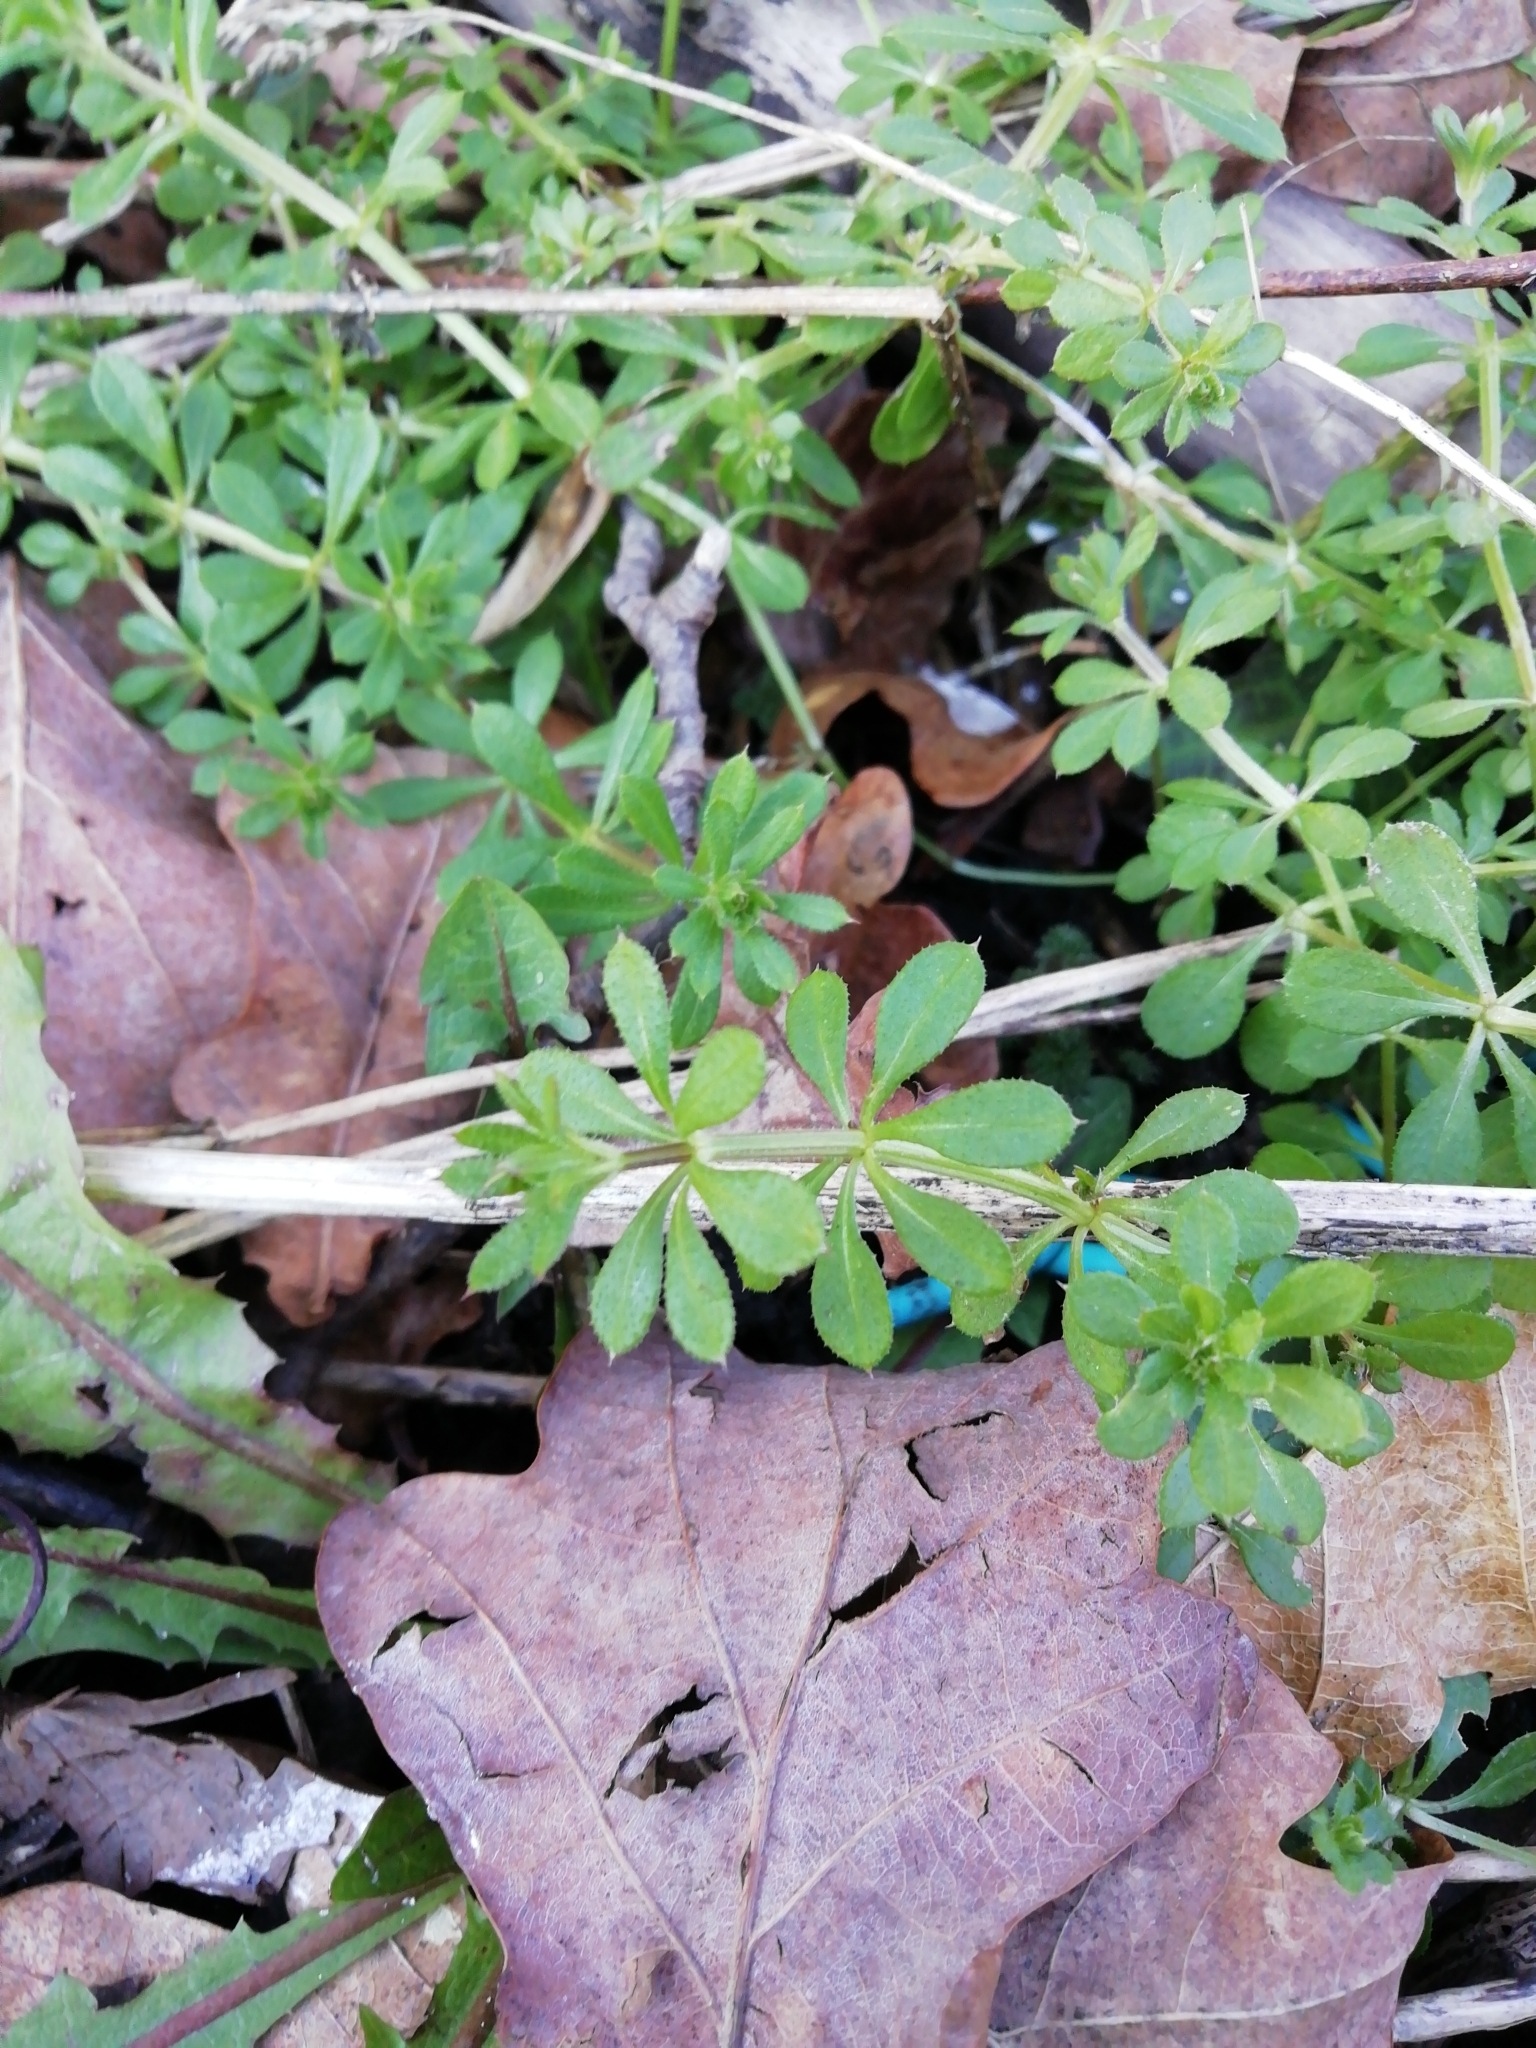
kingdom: Plantae
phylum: Tracheophyta
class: Magnoliopsida
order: Gentianales
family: Rubiaceae
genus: Galium
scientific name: Galium aparine
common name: Cleavers
